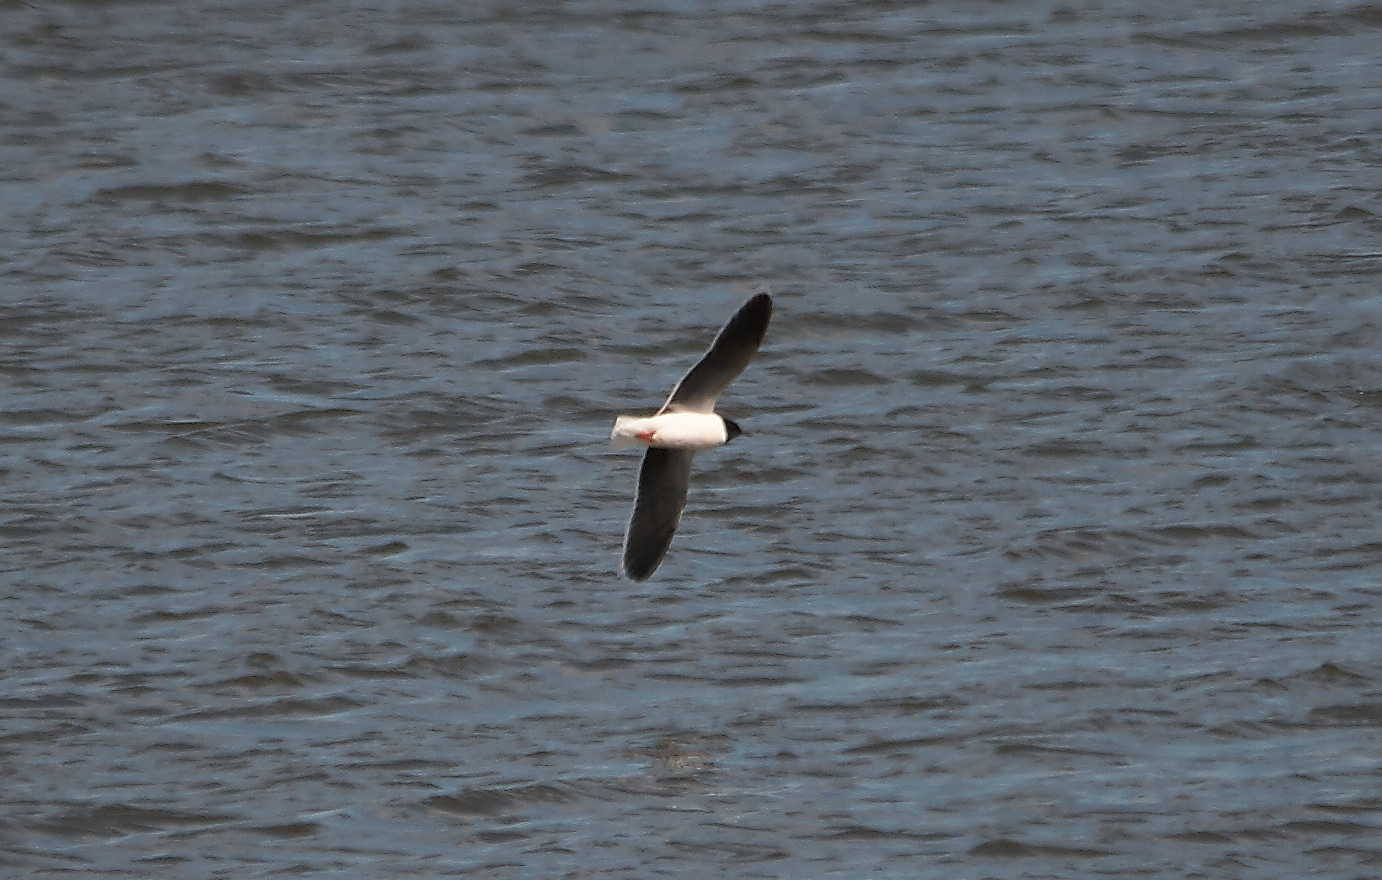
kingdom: Animalia
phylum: Chordata
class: Aves
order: Charadriiformes
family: Laridae
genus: Hydrocoloeus
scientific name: Hydrocoloeus minutus
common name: Little gull
